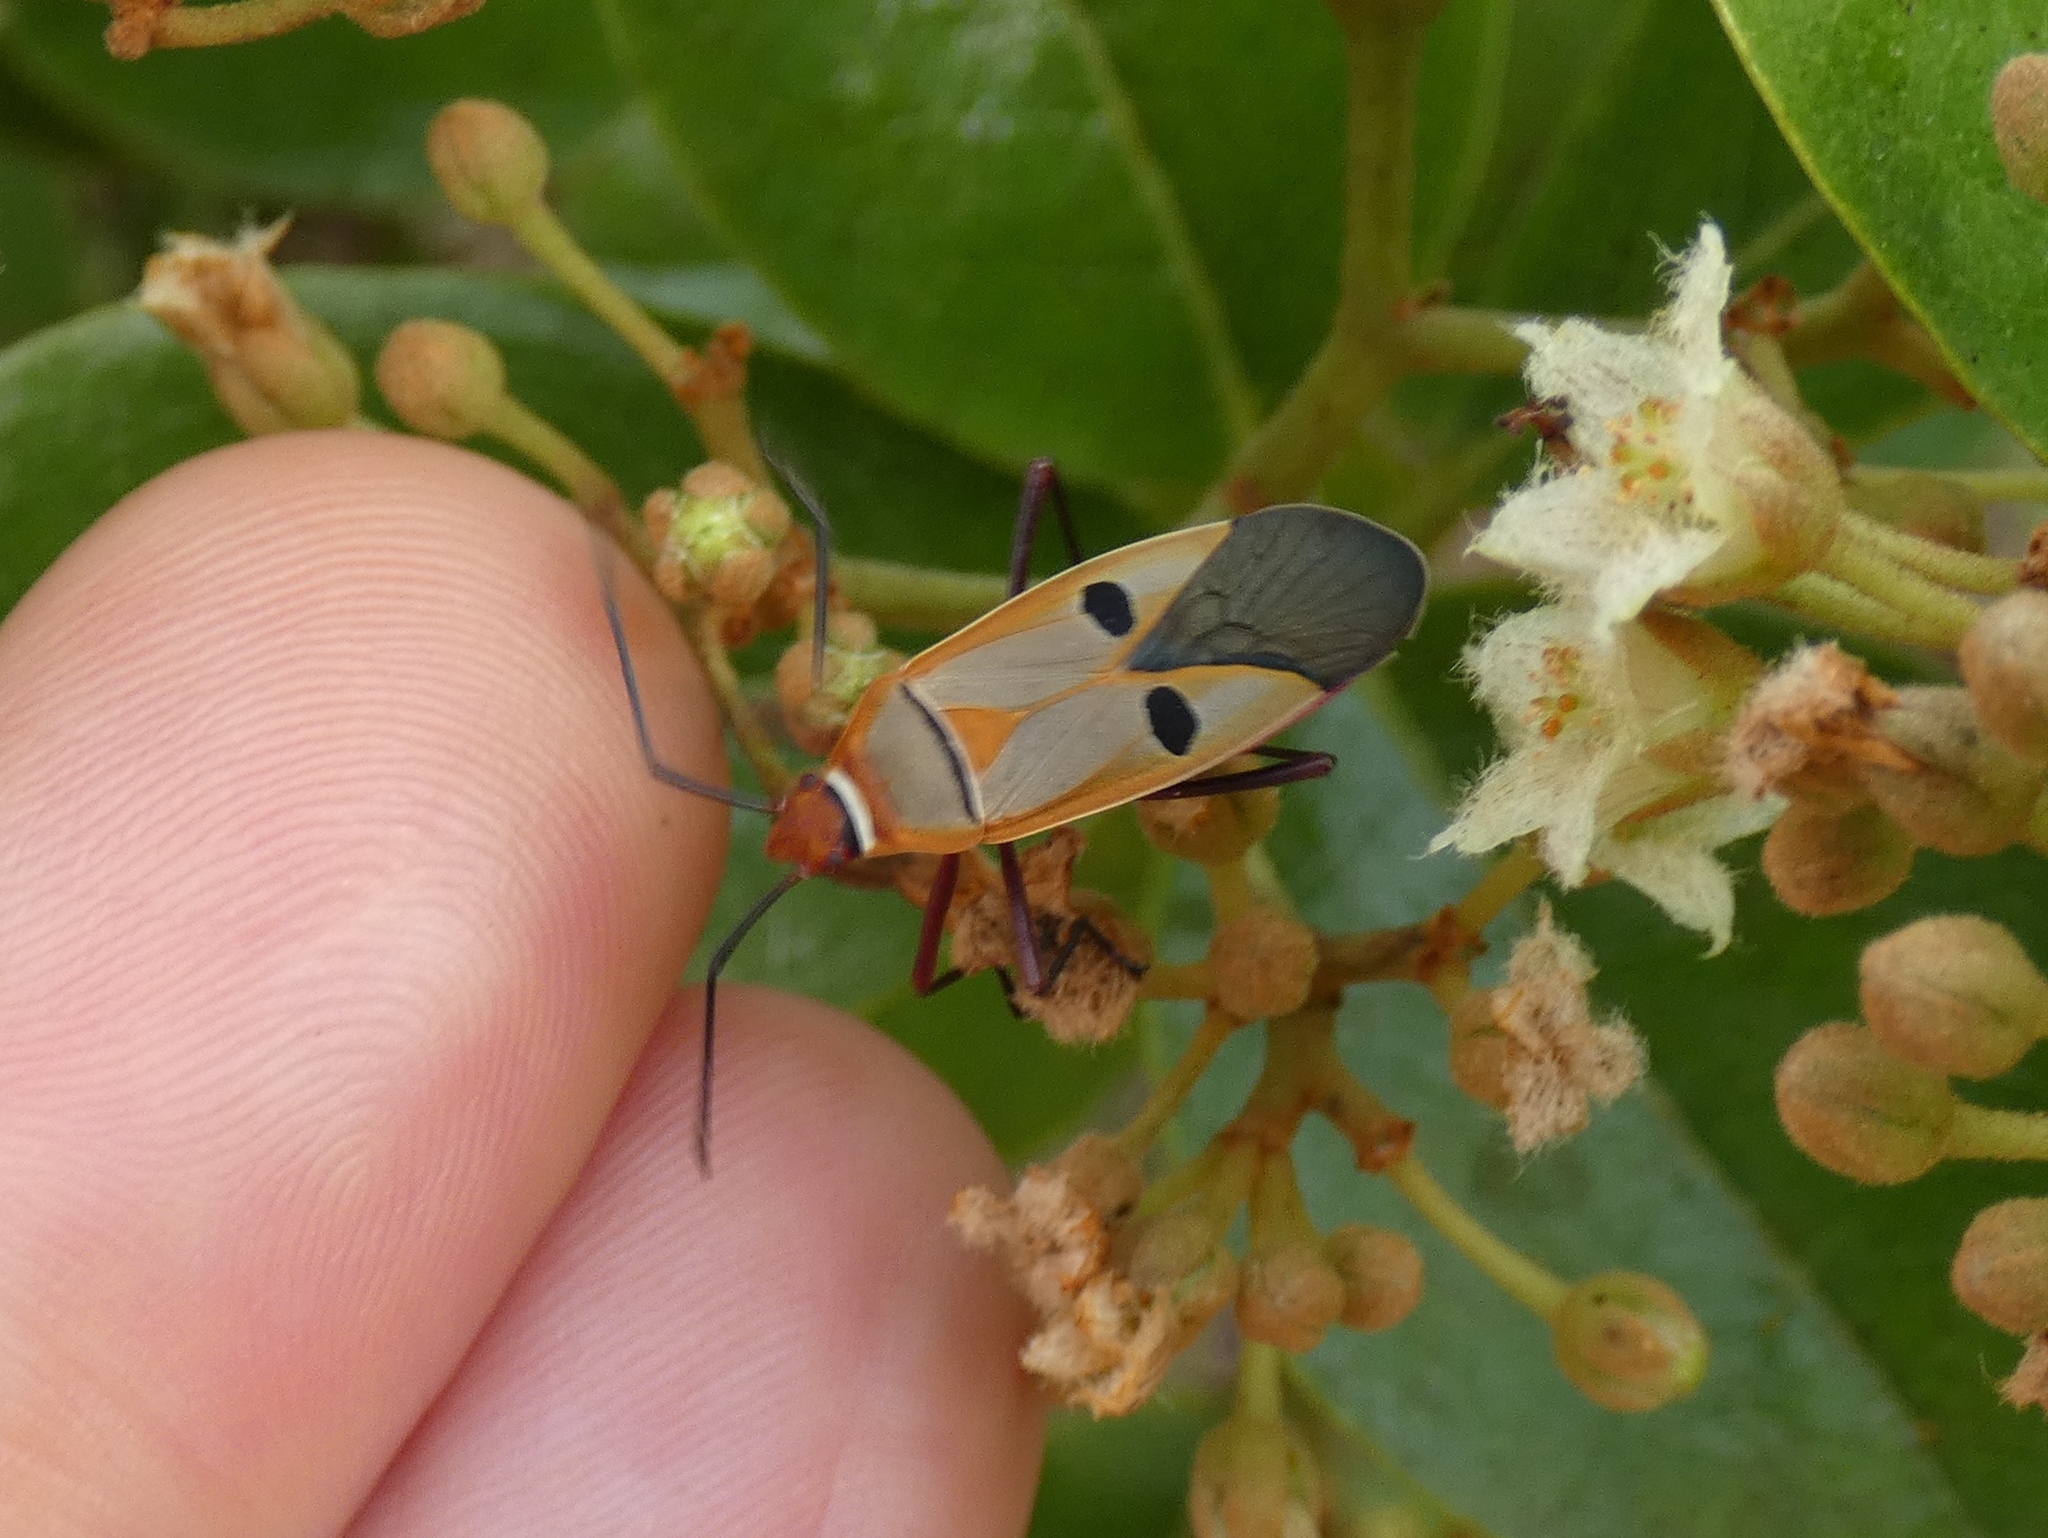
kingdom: Animalia
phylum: Arthropoda
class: Insecta
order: Hemiptera
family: Pyrrhocoridae
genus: Dysdercus
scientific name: Dysdercus superstitiosus
